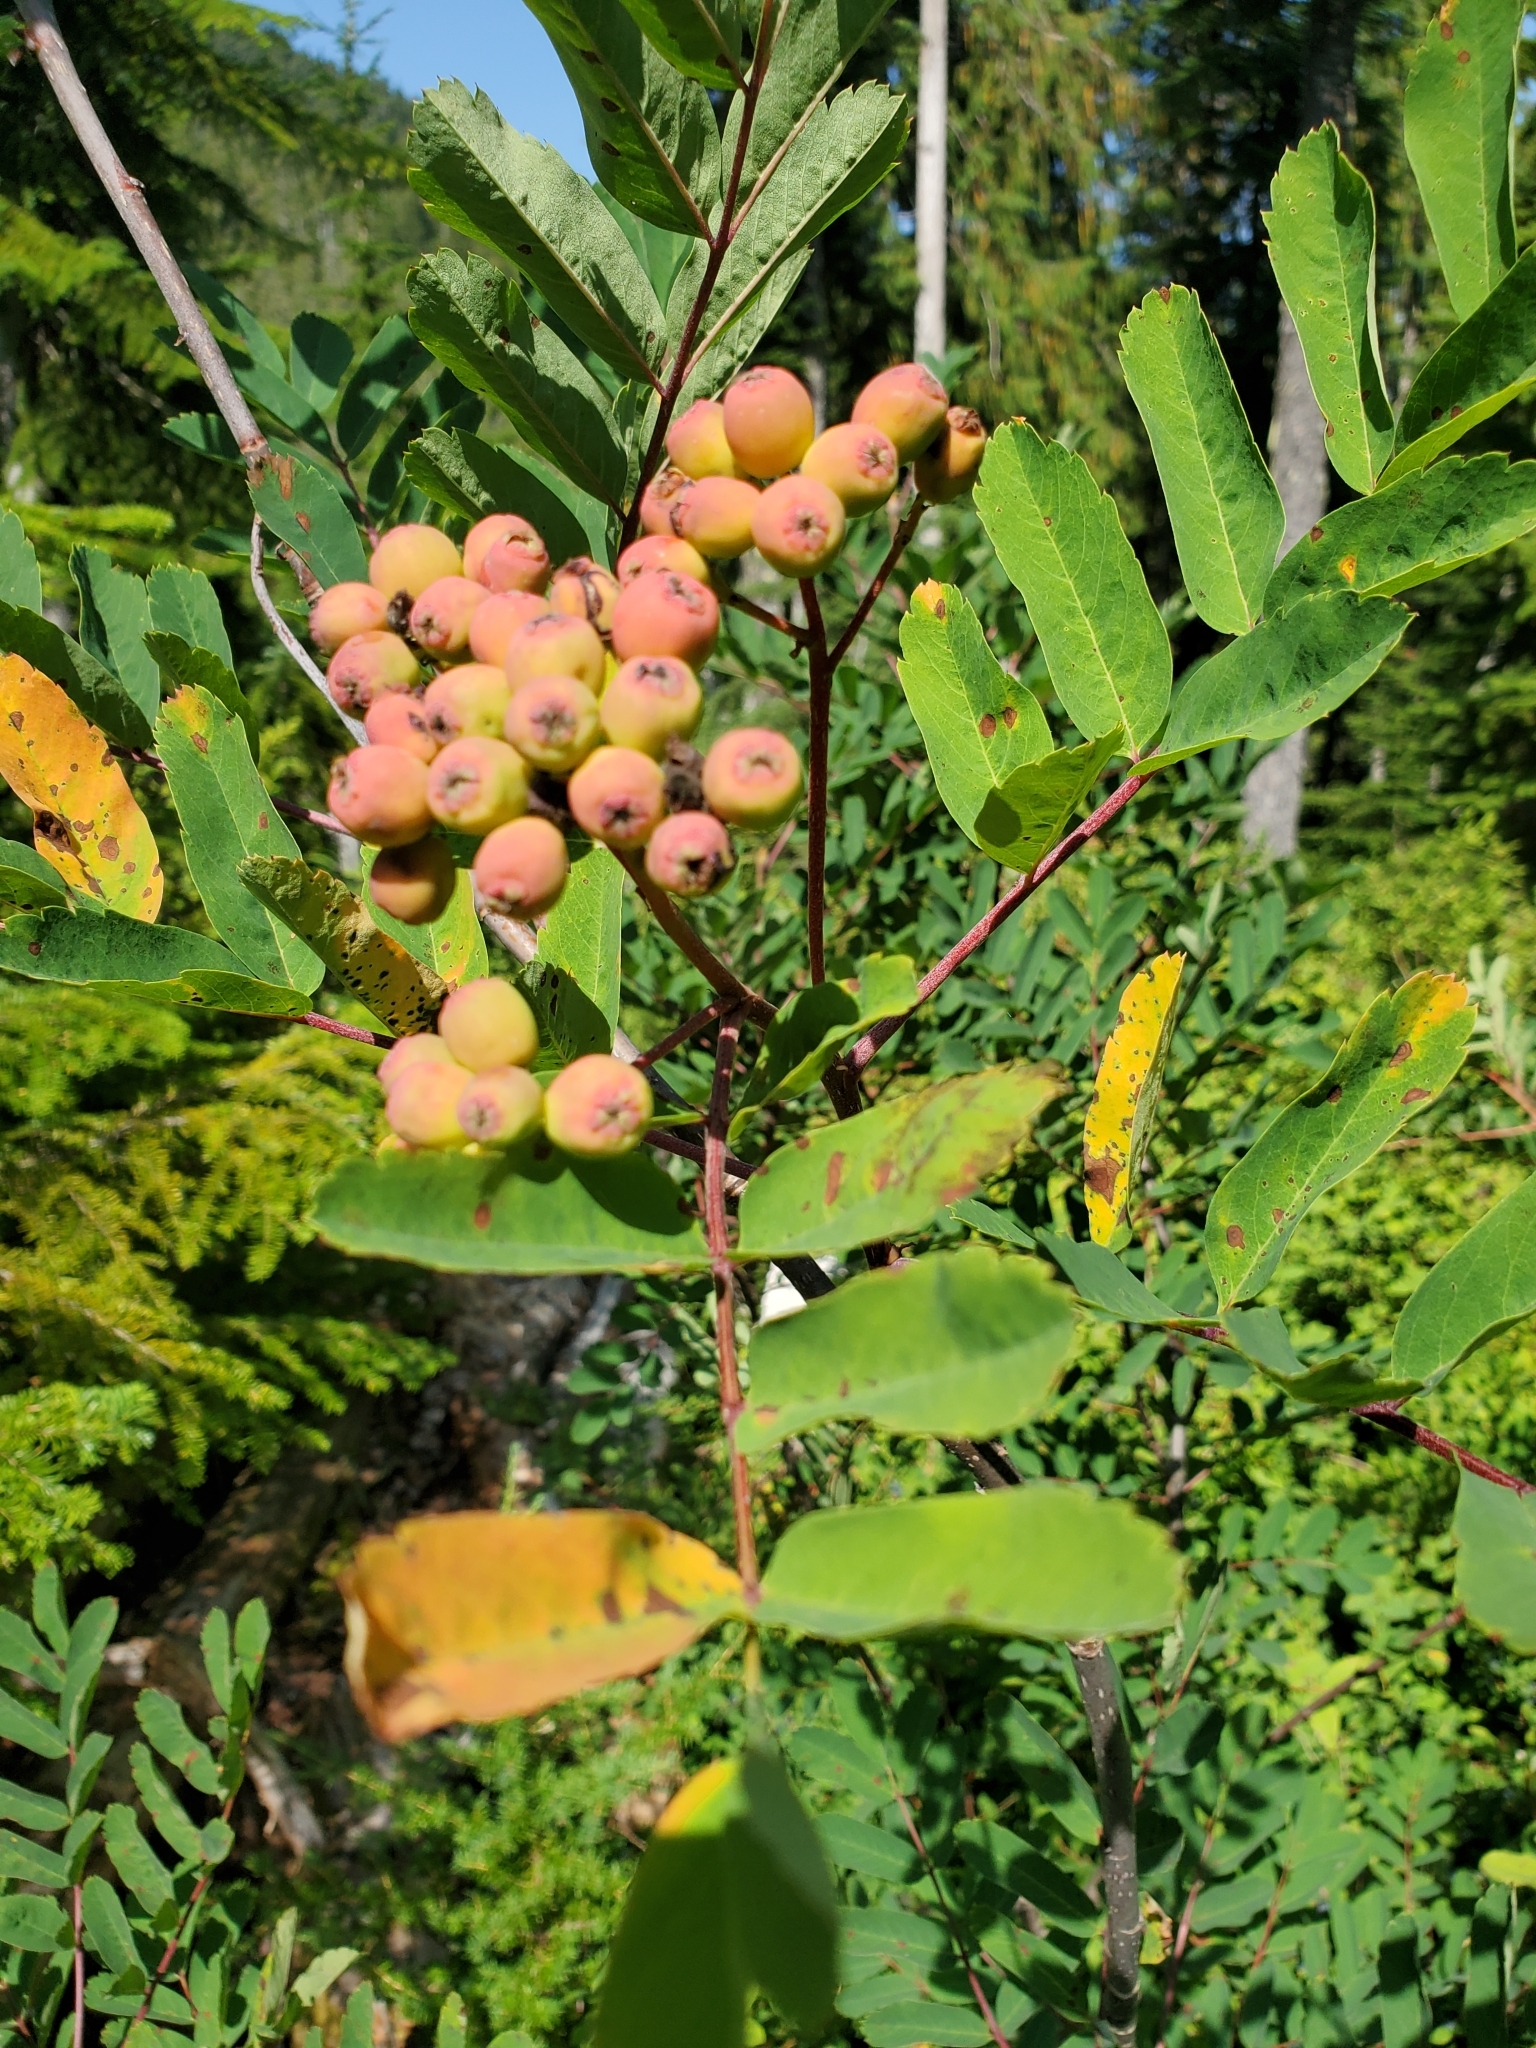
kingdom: Plantae
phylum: Tracheophyta
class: Magnoliopsida
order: Rosales
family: Rosaceae
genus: Sorbus
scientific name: Sorbus sitchensis
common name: Sitka mountain-ash
